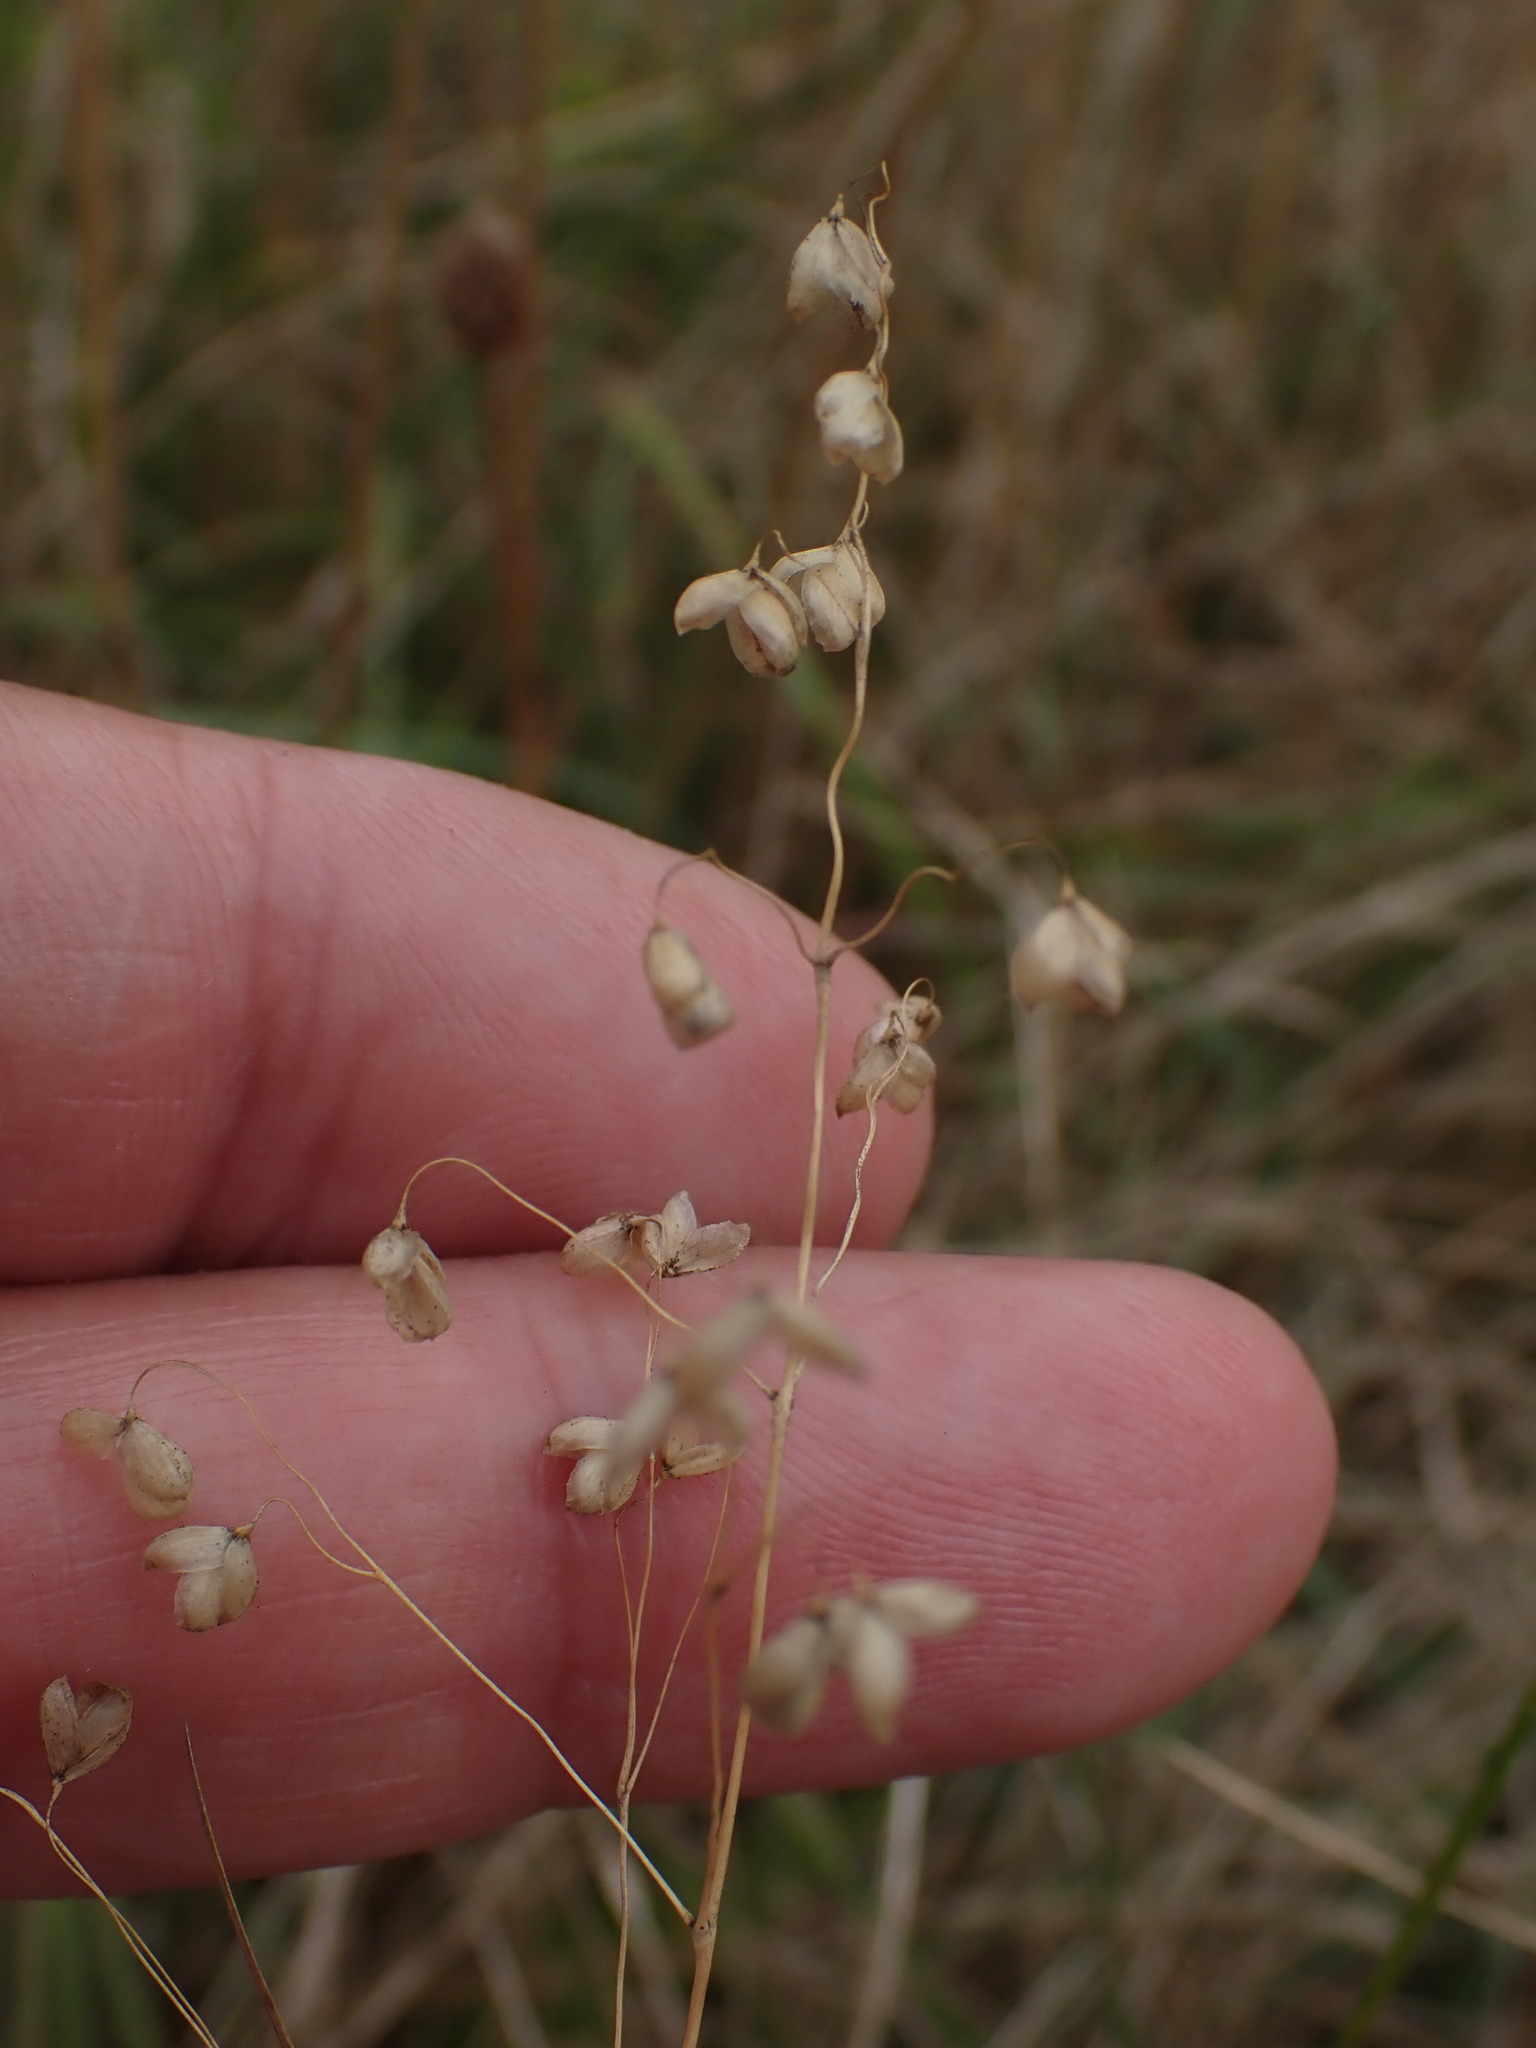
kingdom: Plantae
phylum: Tracheophyta
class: Liliopsida
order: Poales
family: Poaceae
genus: Briza
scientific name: Briza media
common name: Quaking grass
